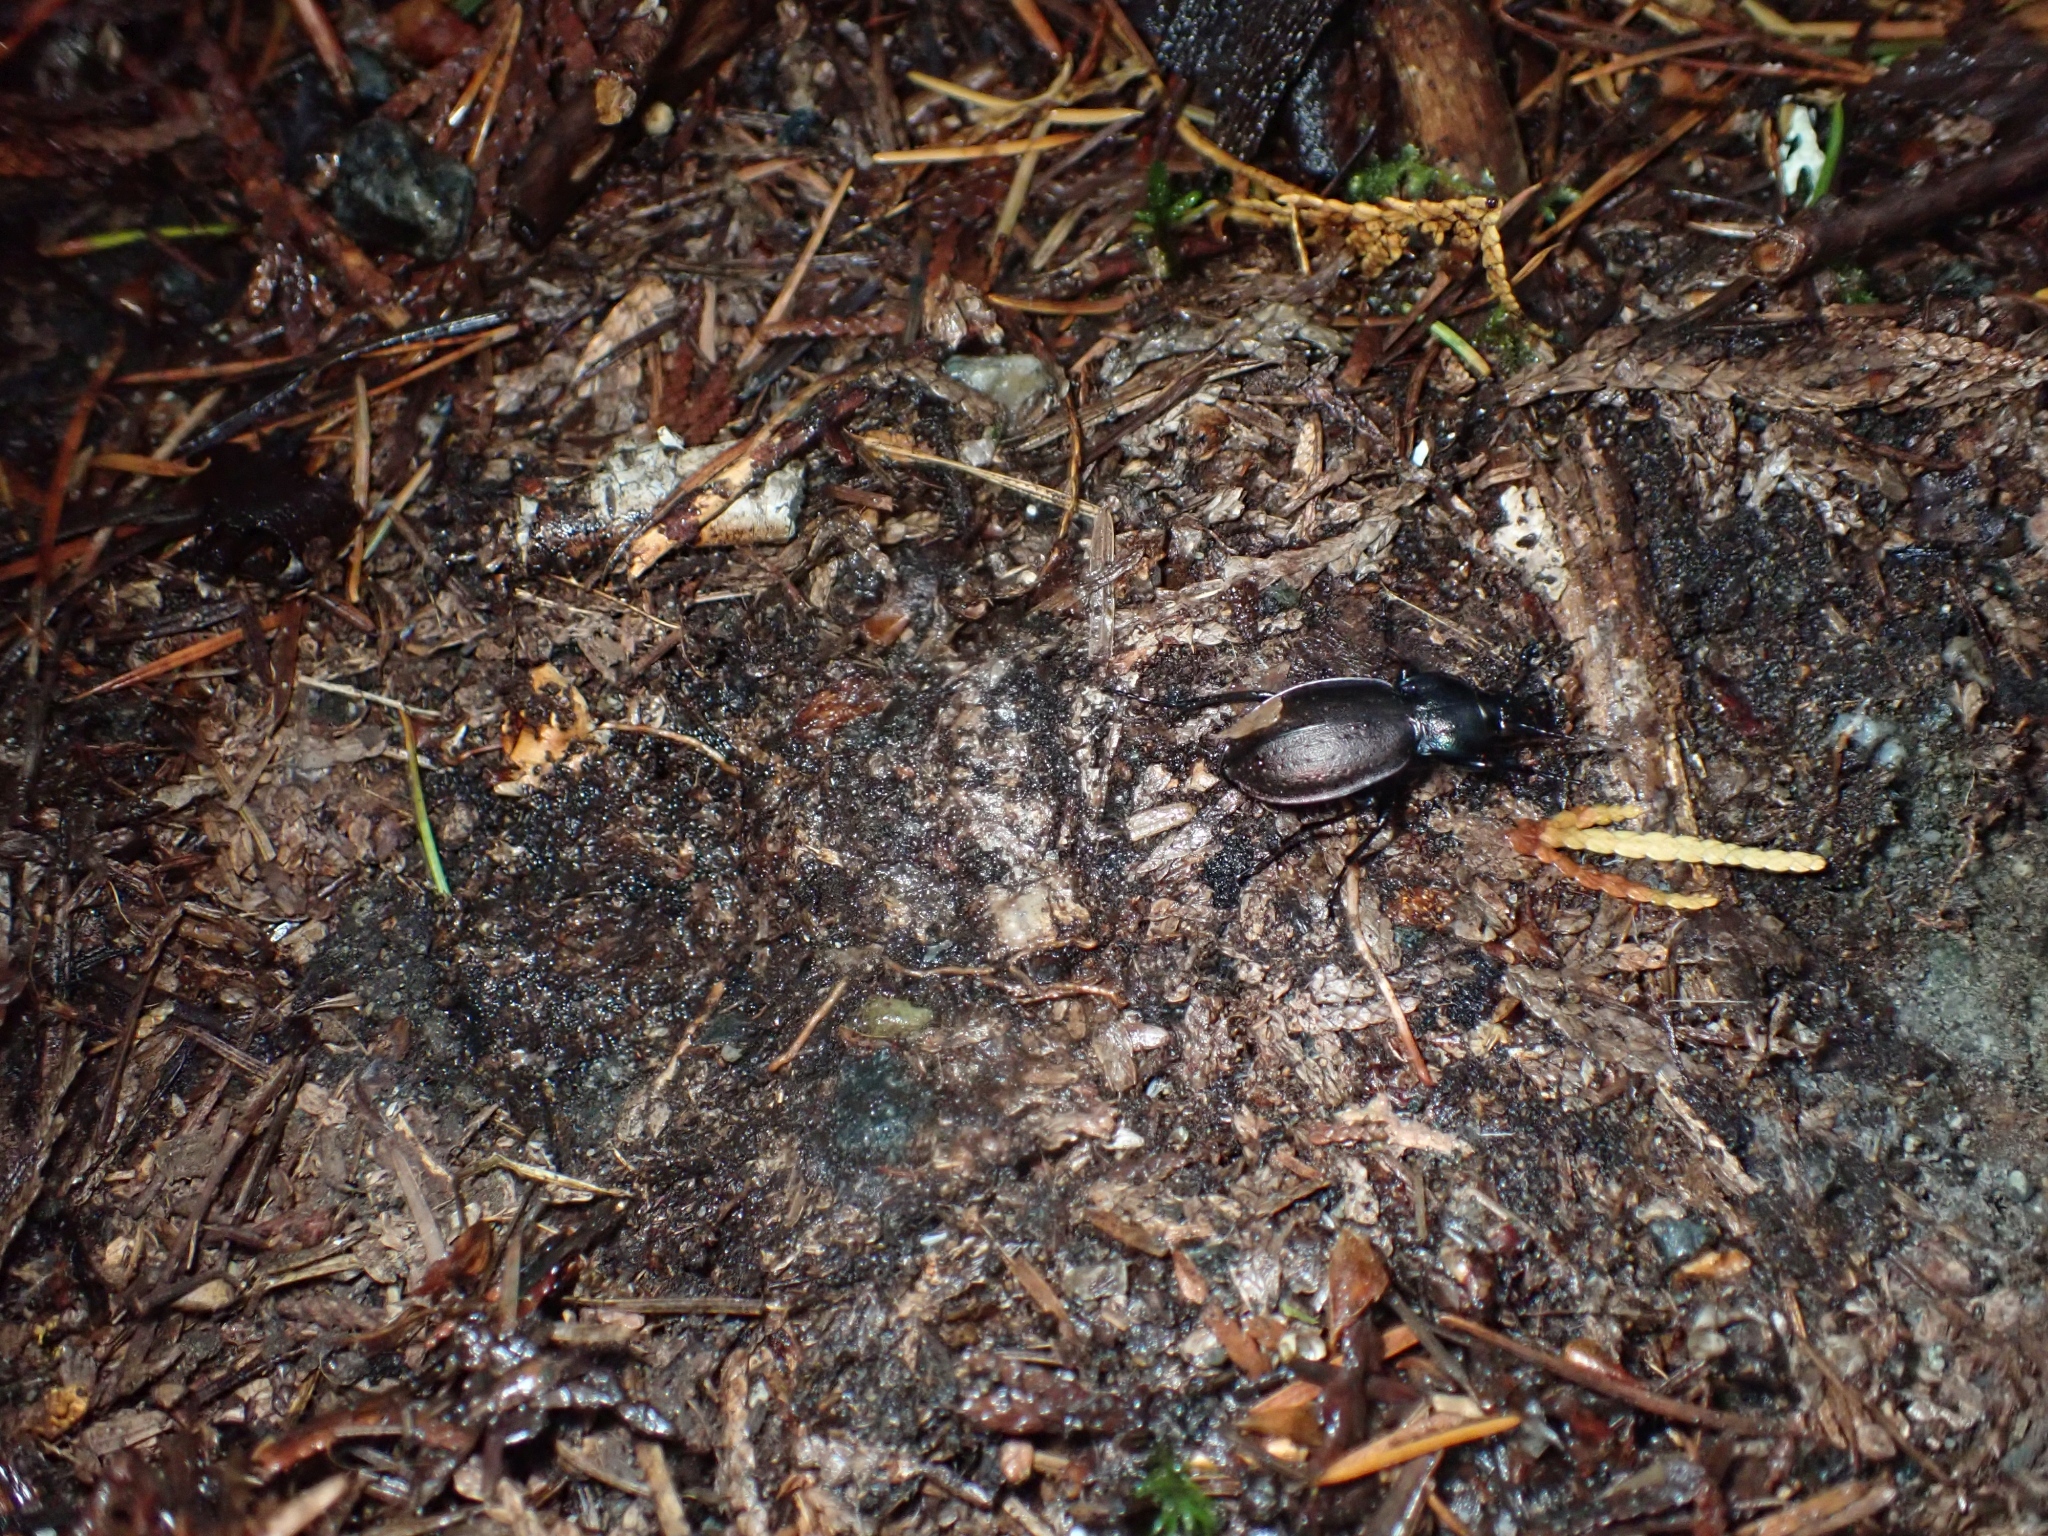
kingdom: Animalia
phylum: Arthropoda
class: Insecta
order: Coleoptera
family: Carabidae
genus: Carabus
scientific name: Carabus nemoralis
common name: European ground beetle
